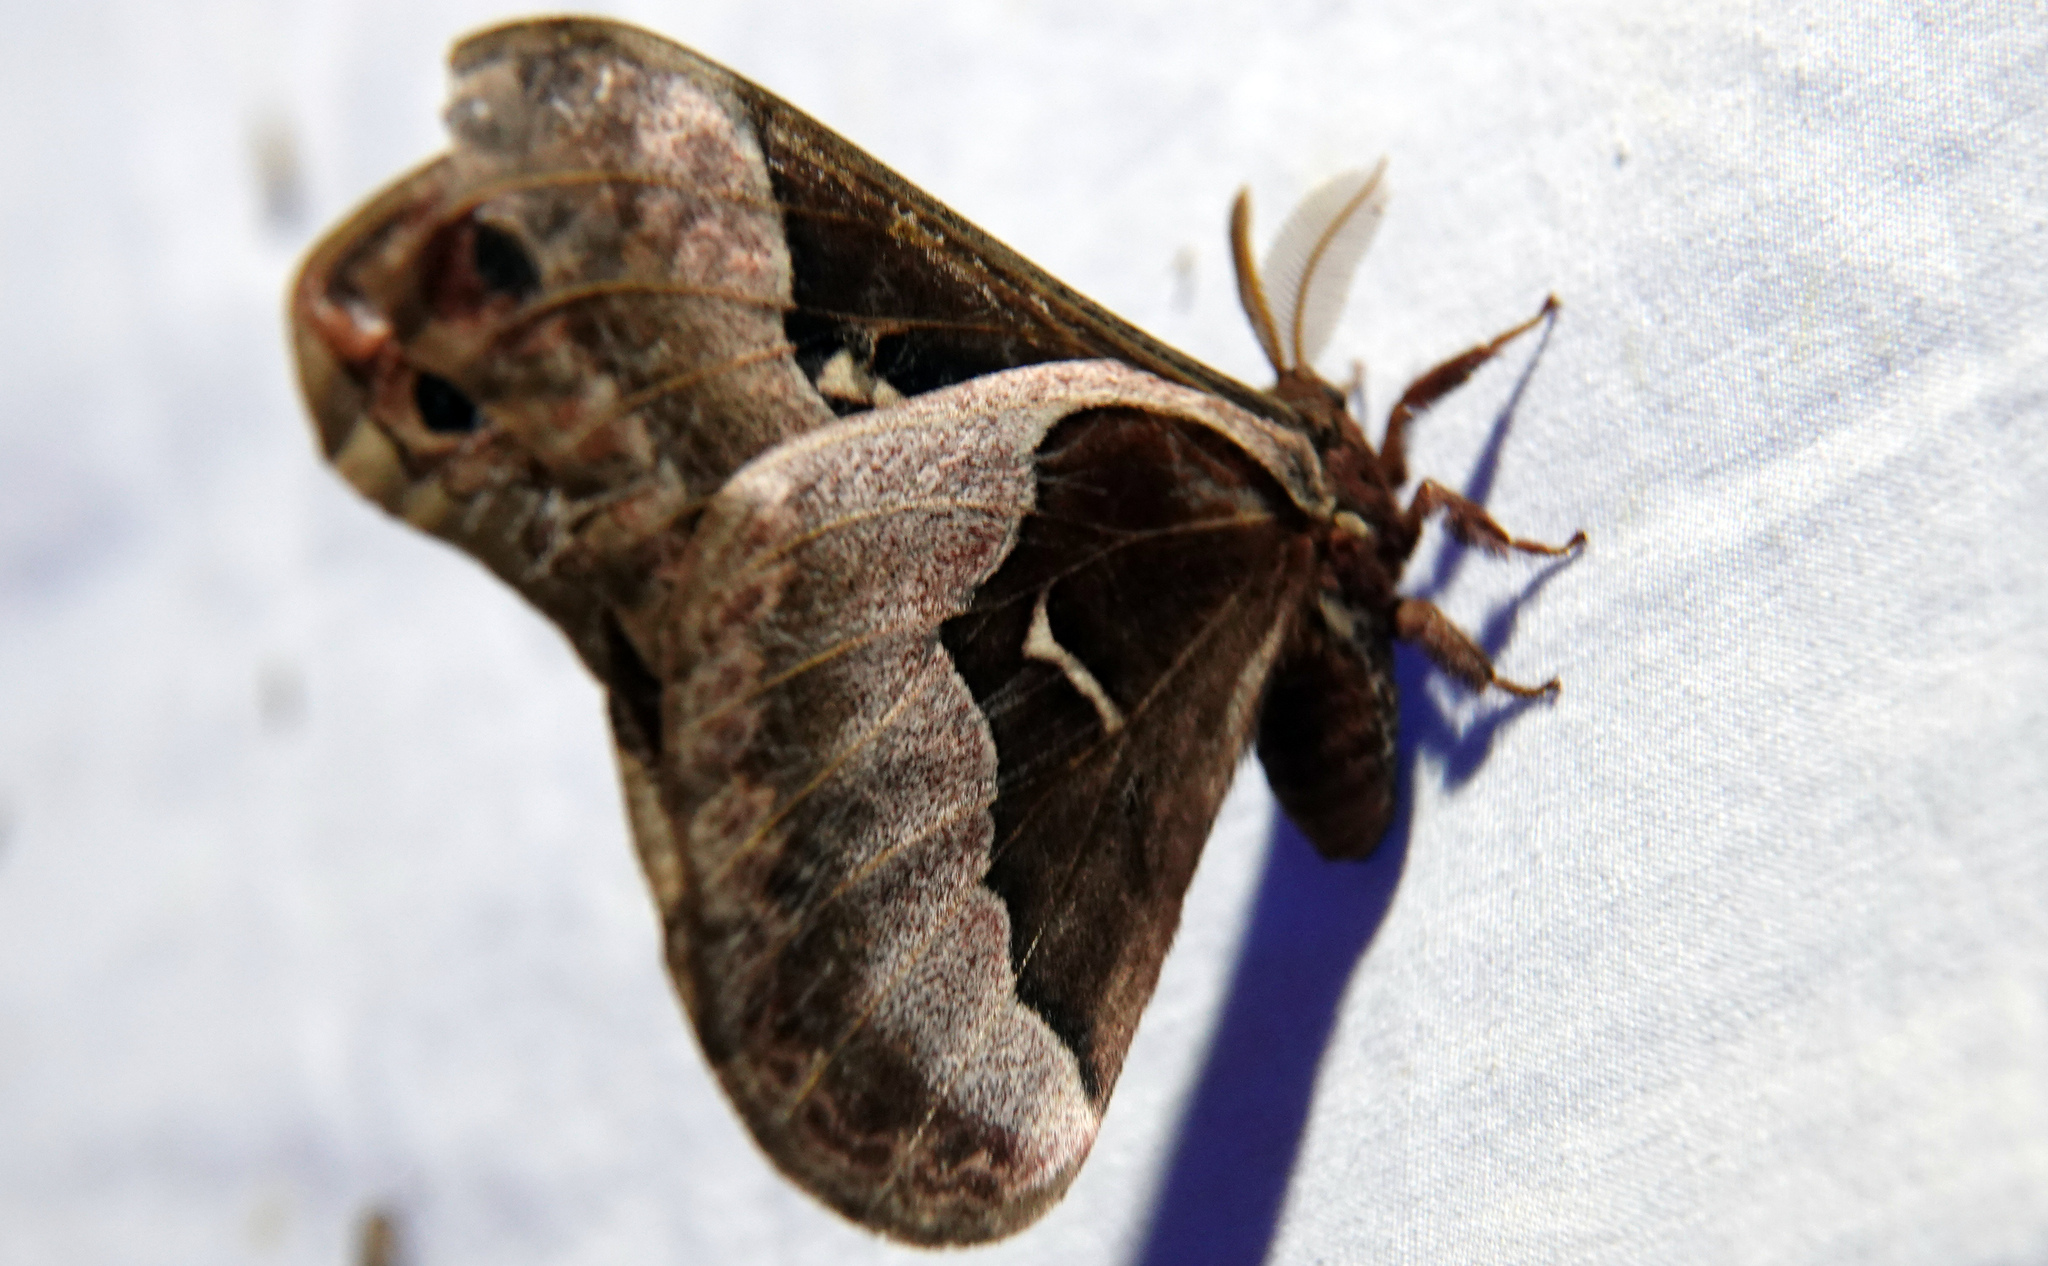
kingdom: Animalia
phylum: Arthropoda
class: Insecta
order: Lepidoptera
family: Saturniidae
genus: Callosamia
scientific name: Callosamia angulifera
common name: Tulip tree silkmoth
